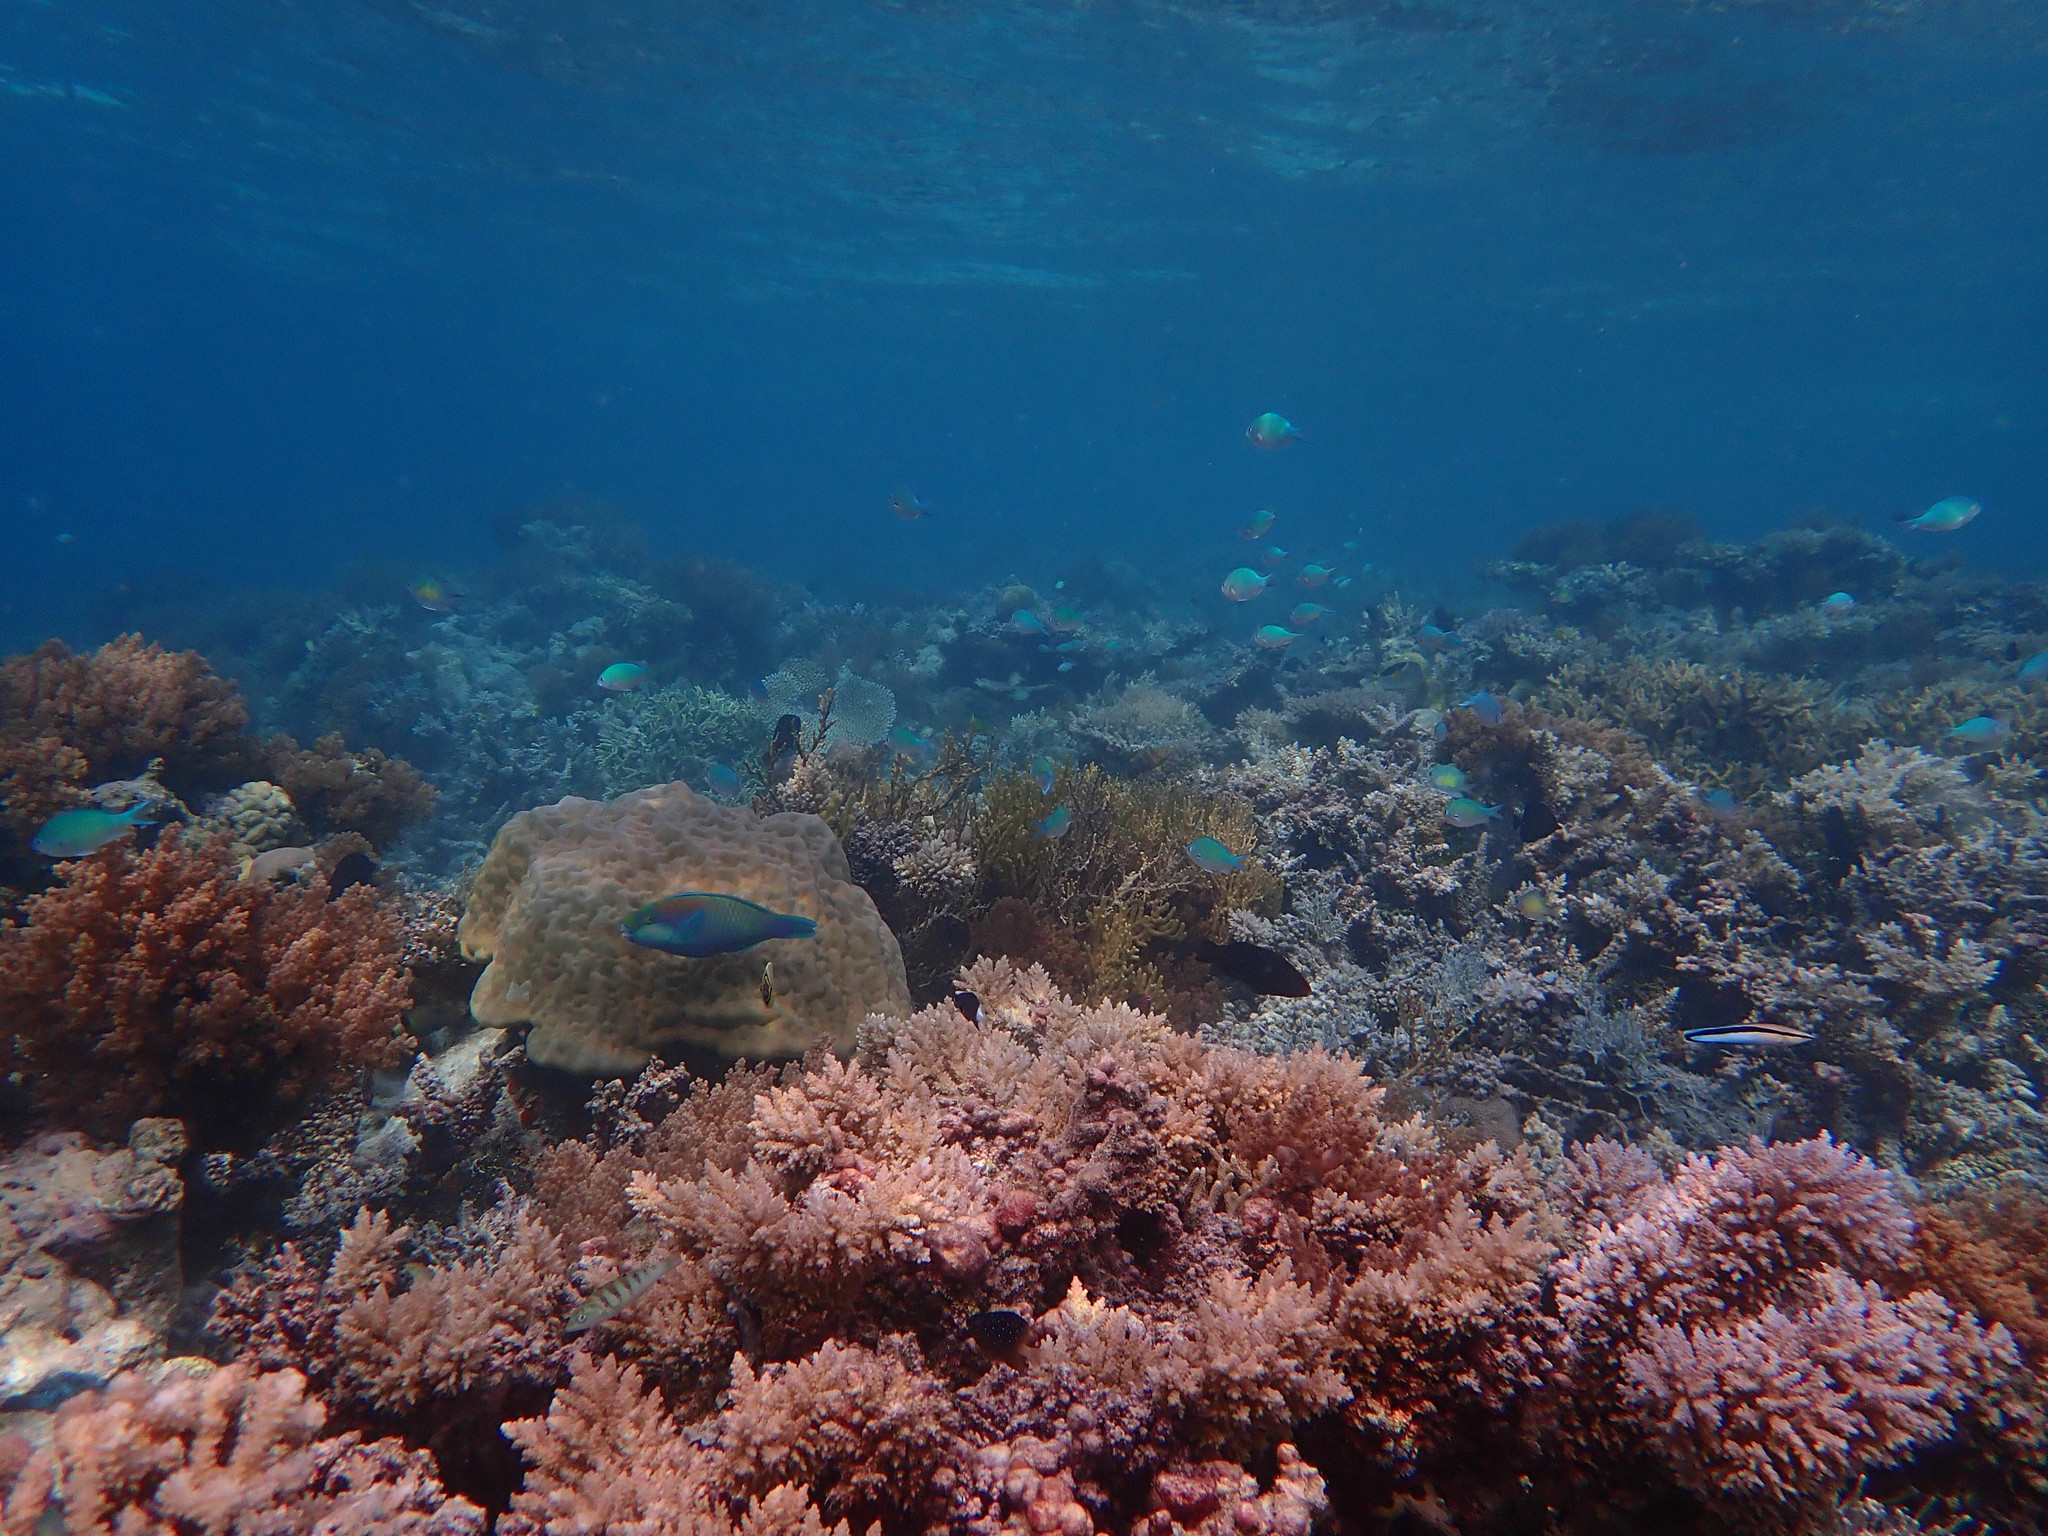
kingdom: Animalia
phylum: Chordata
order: Perciformes
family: Scaridae
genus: Chlorurus
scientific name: Chlorurus bleekeri
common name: Bleeker's parrotfish
